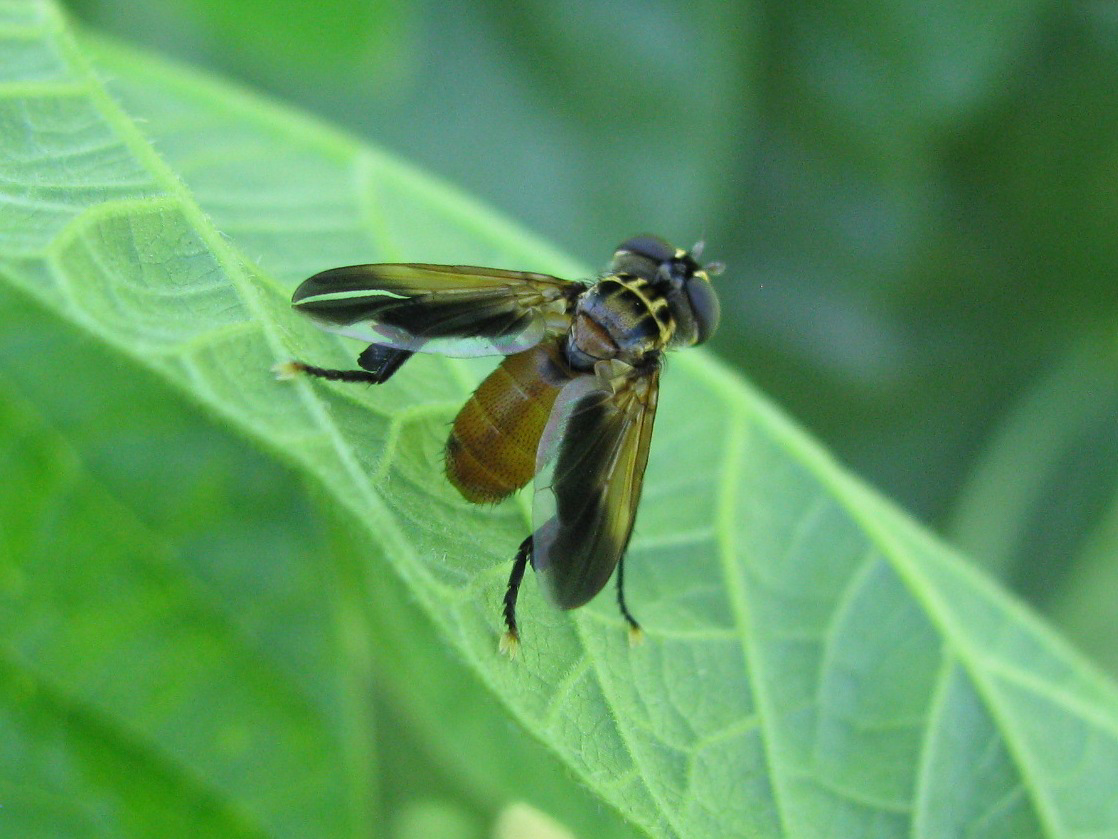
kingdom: Animalia
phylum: Arthropoda
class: Insecta
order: Diptera
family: Tachinidae
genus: Trichopoda
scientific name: Trichopoda pictipennis
